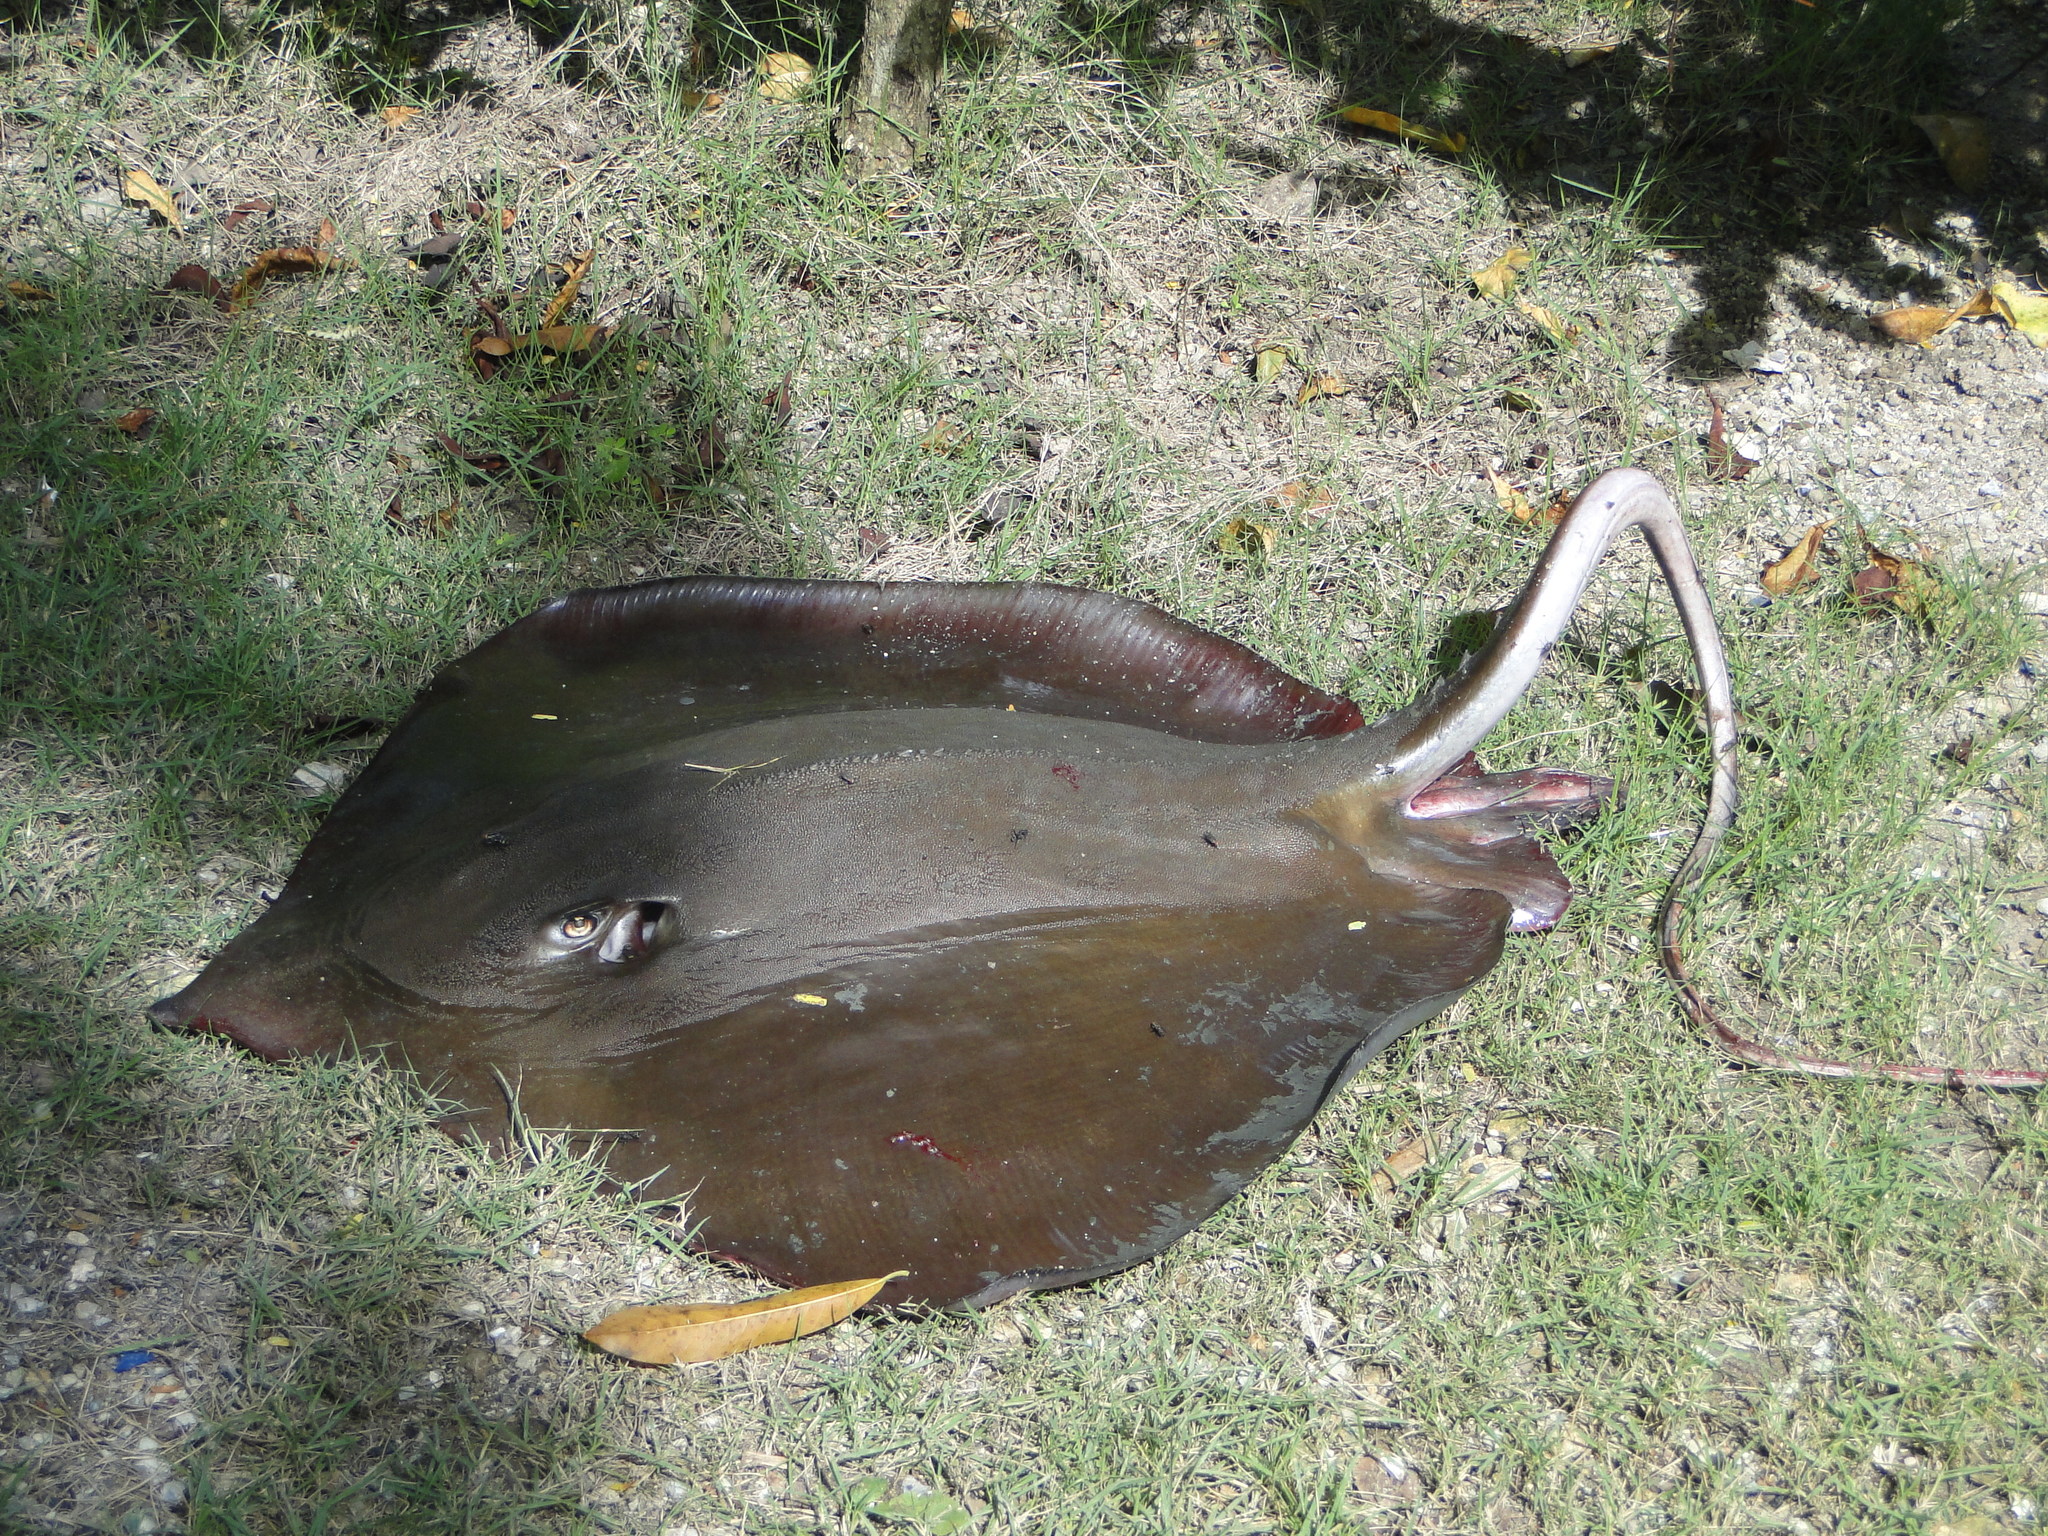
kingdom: Animalia
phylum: Chordata
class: Elasmobranchii
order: Myliobatiformes
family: Dasyatidae
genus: Hypanus
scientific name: Hypanus guttatus
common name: Longnose stingray
